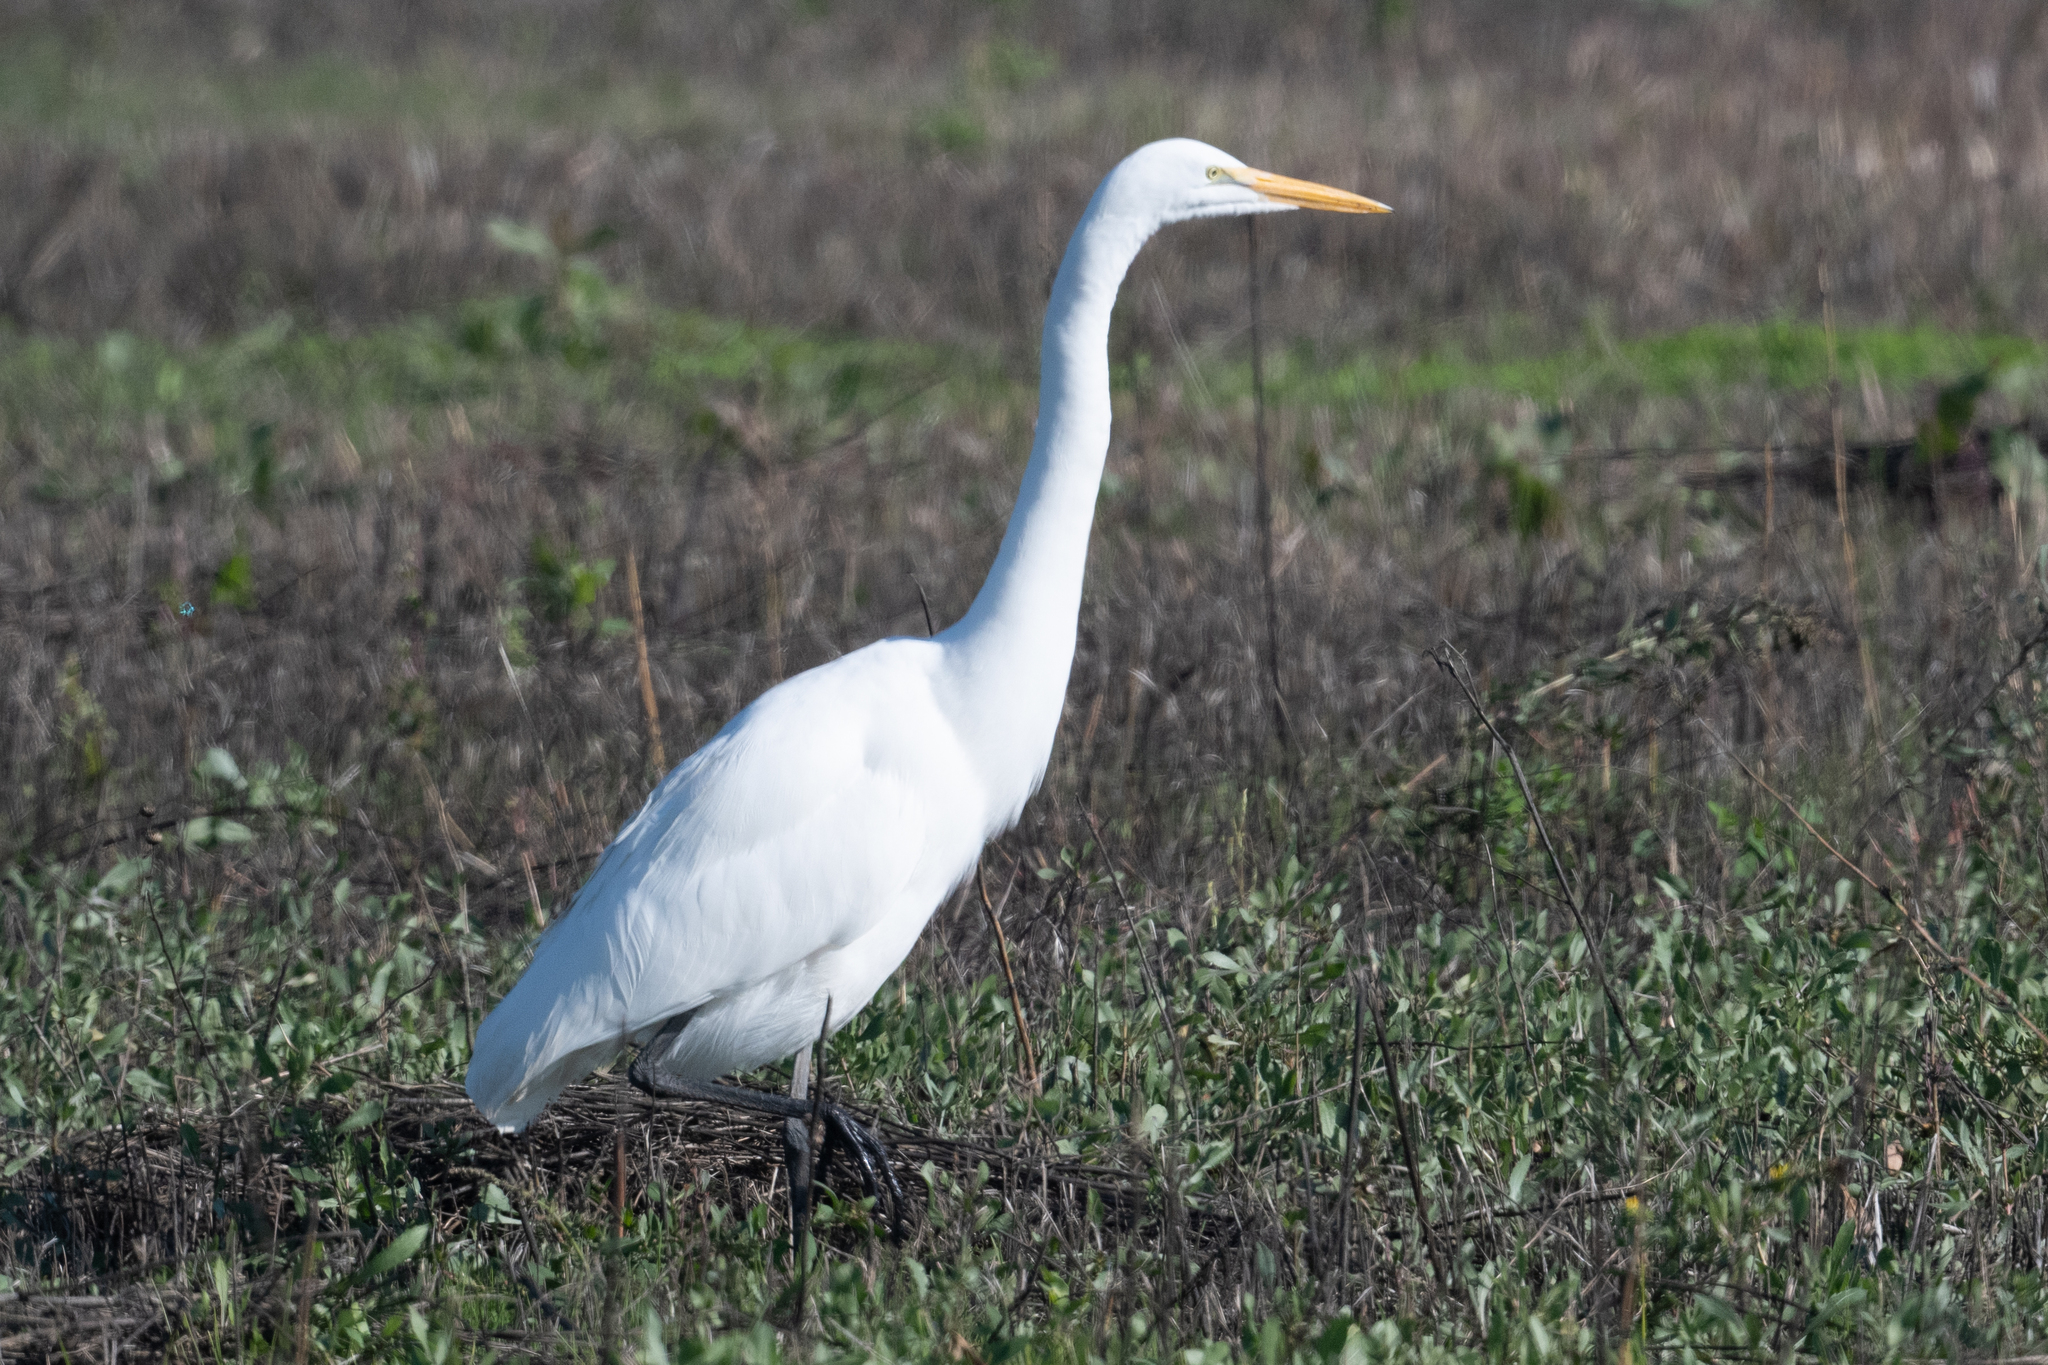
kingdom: Animalia
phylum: Chordata
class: Aves
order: Pelecaniformes
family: Ardeidae
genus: Ardea
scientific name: Ardea alba
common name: Great egret
